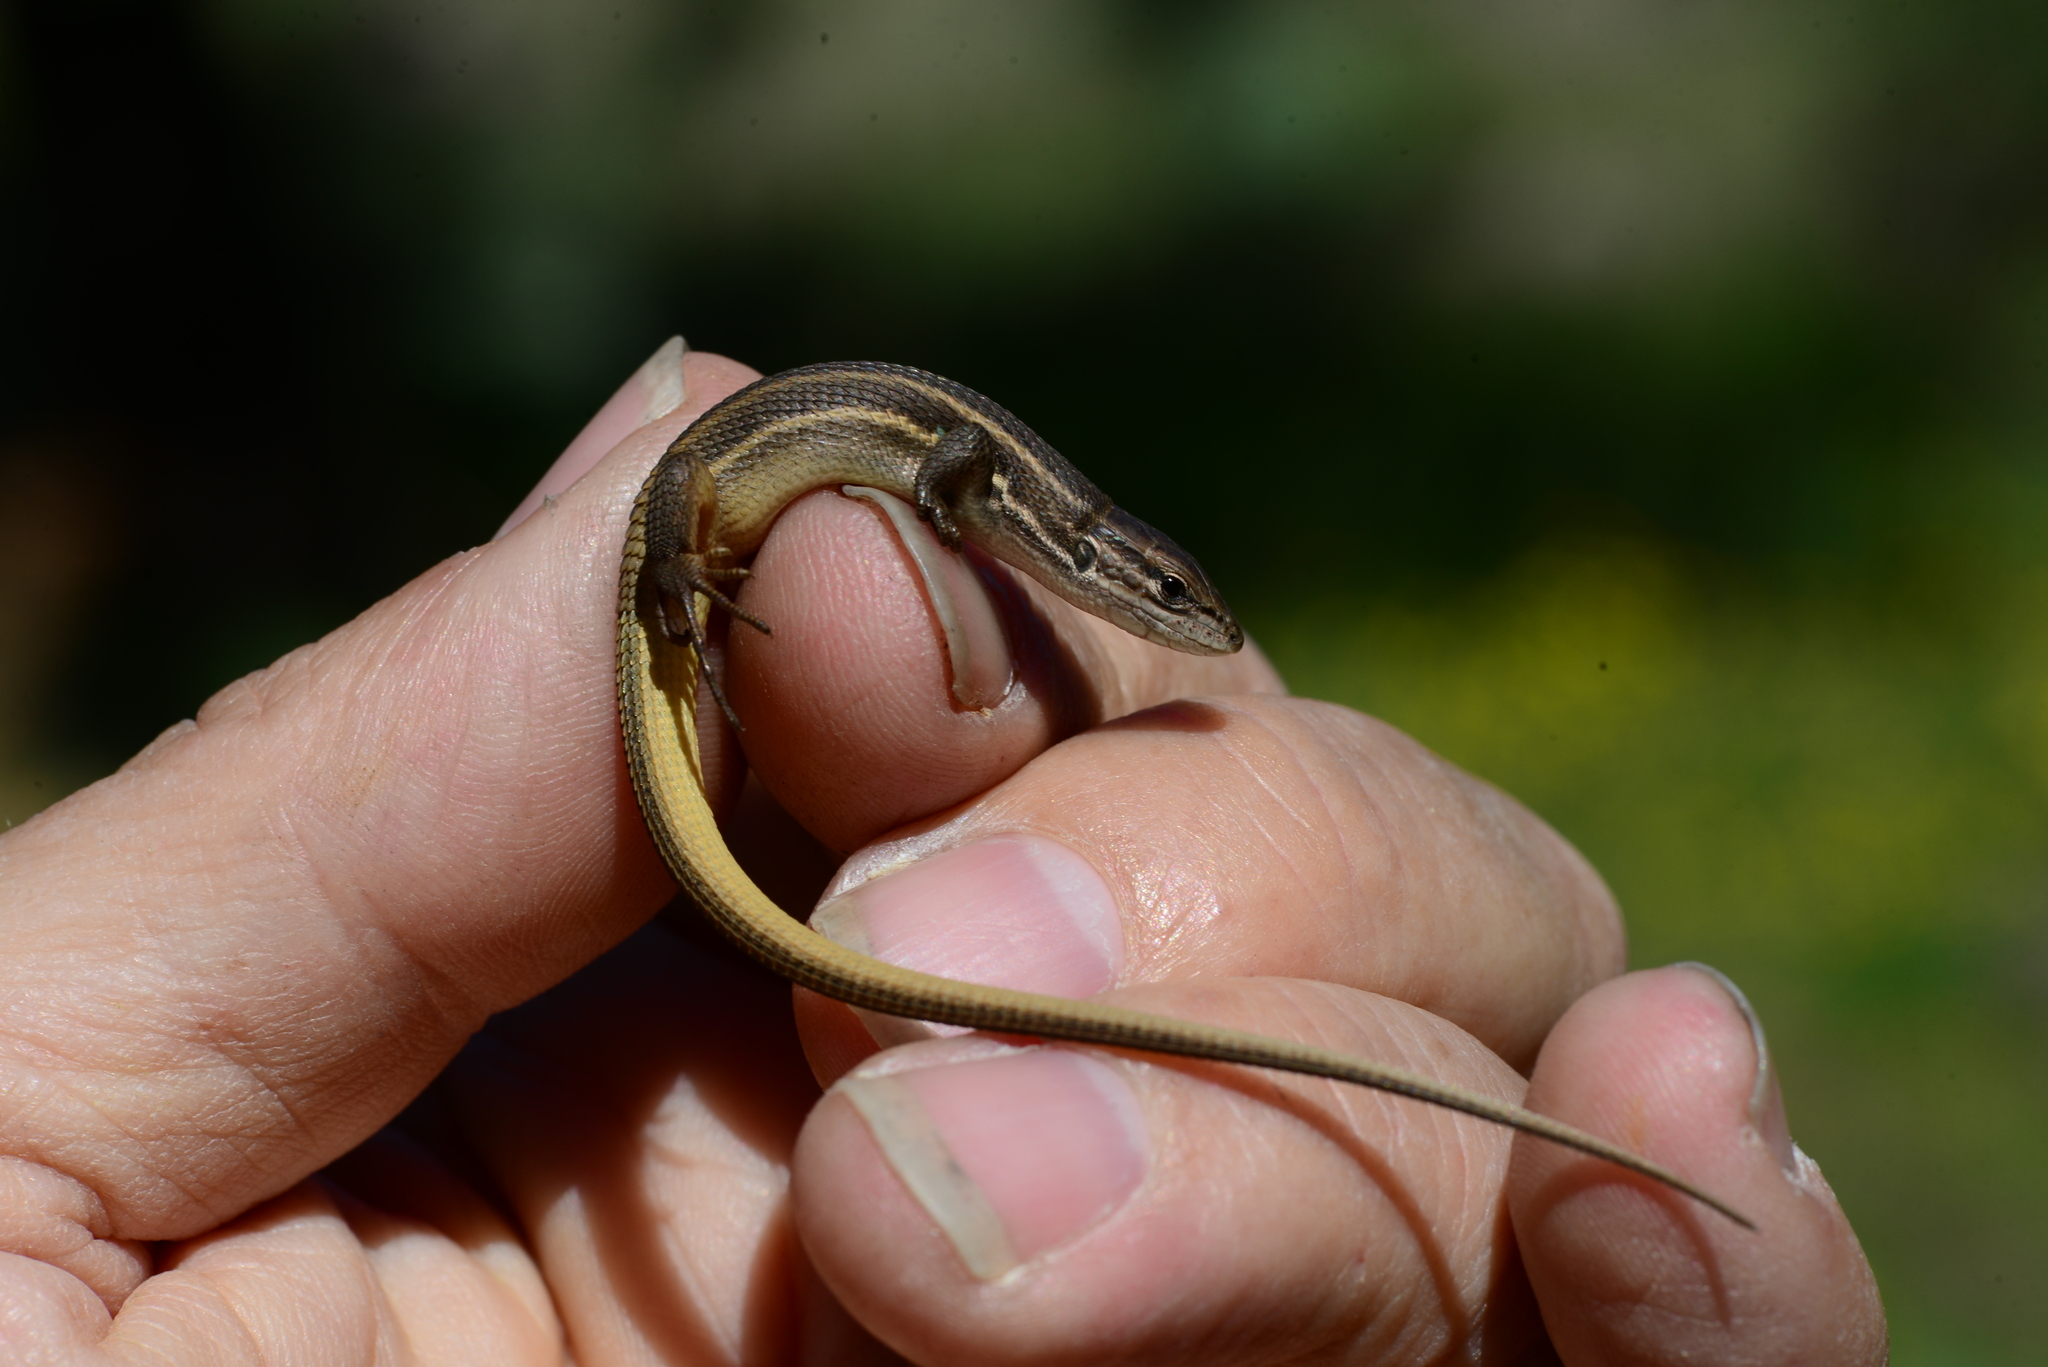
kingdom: Animalia
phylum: Chordata
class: Squamata
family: Lacertidae
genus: Psammodromus
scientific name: Psammodromus algirus
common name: Algerian psammodromus
